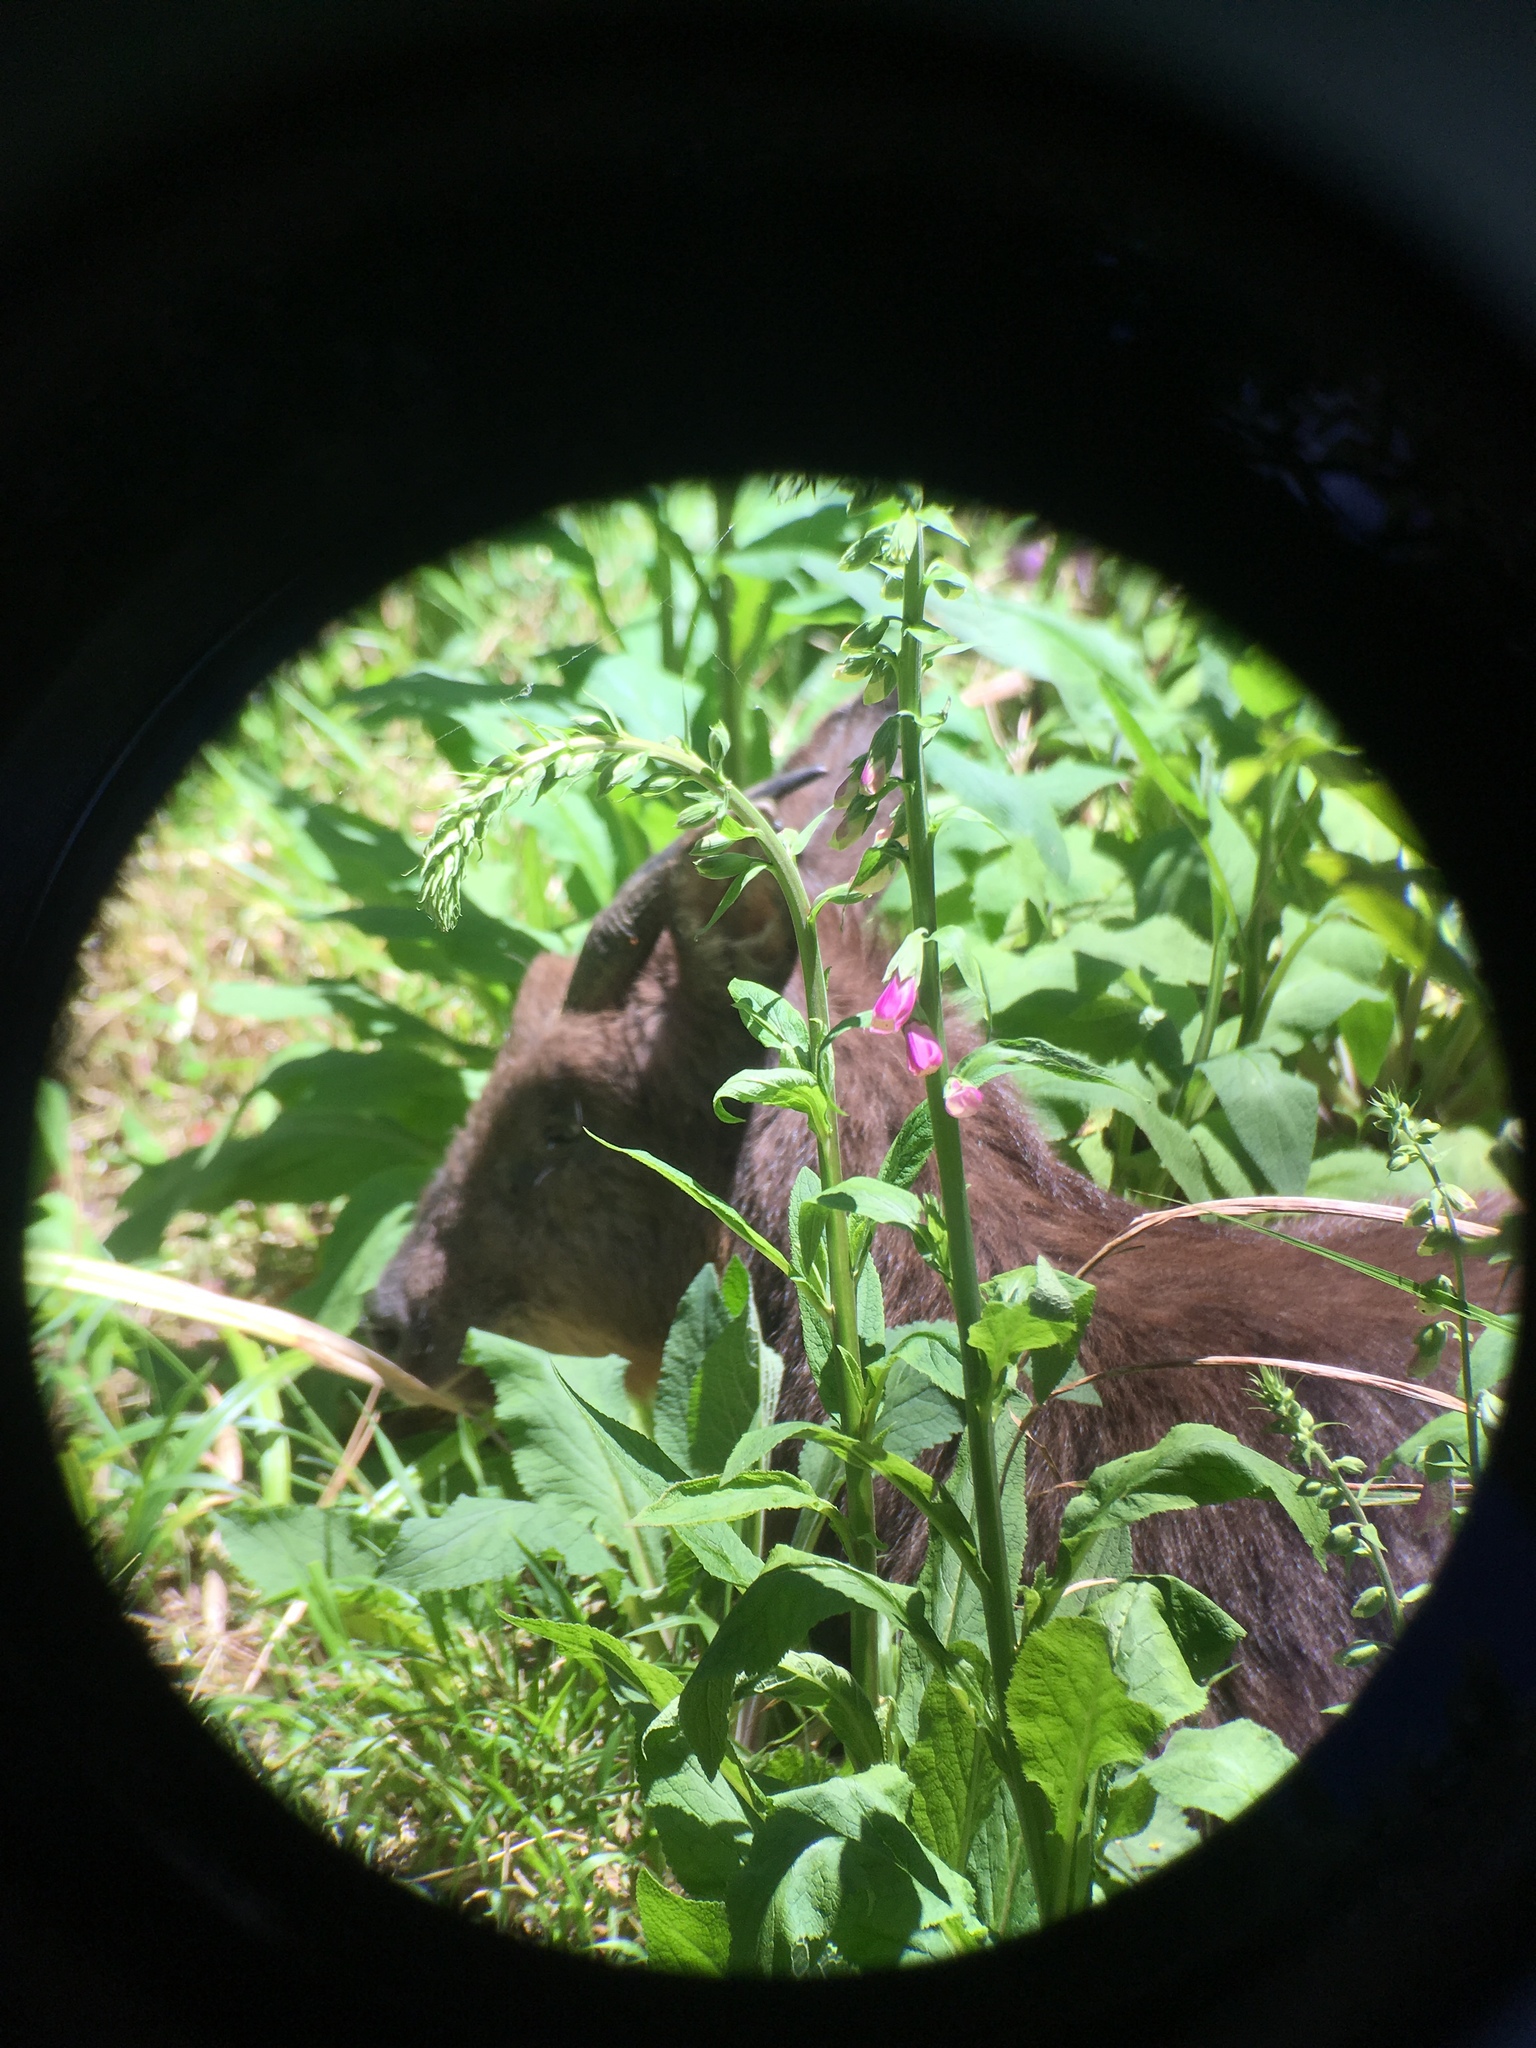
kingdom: Animalia
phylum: Chordata
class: Mammalia
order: Artiodactyla
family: Bovidae
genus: Capricornis
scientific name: Capricornis swinhoei
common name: Formosan serow
